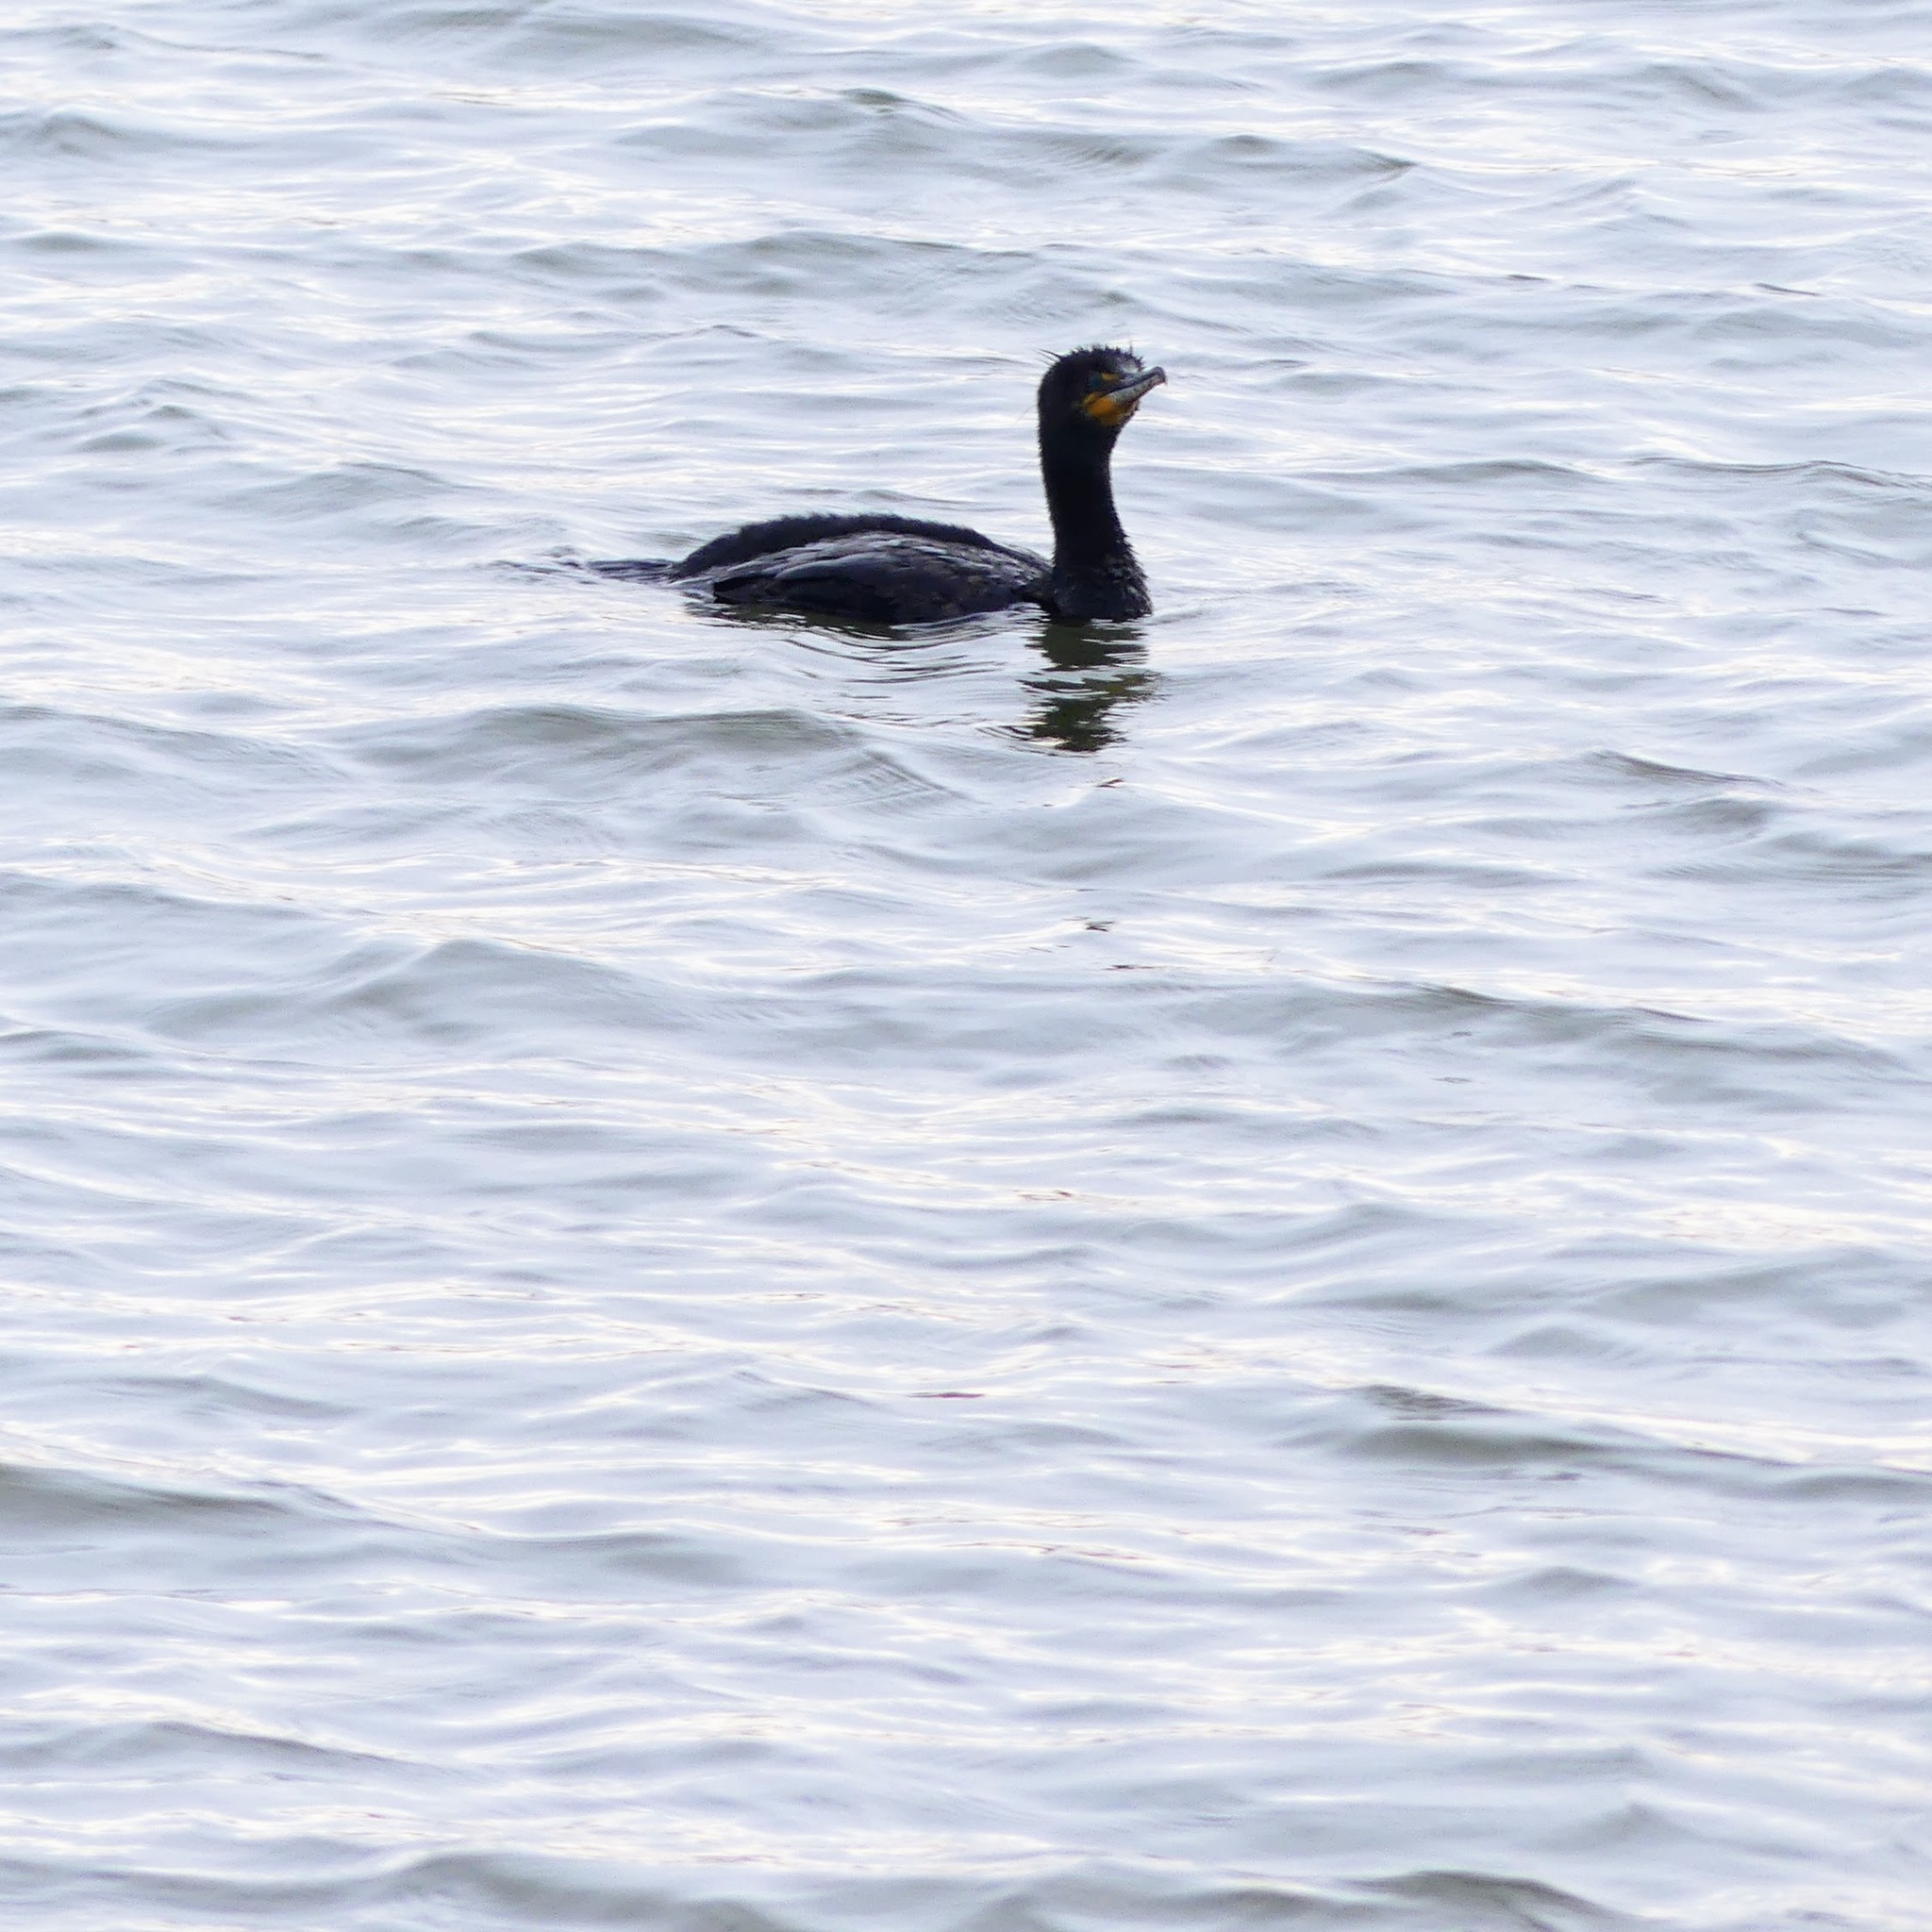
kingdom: Animalia
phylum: Chordata
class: Aves
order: Suliformes
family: Phalacrocoracidae
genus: Phalacrocorax
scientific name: Phalacrocorax auritus
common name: Double-crested cormorant
